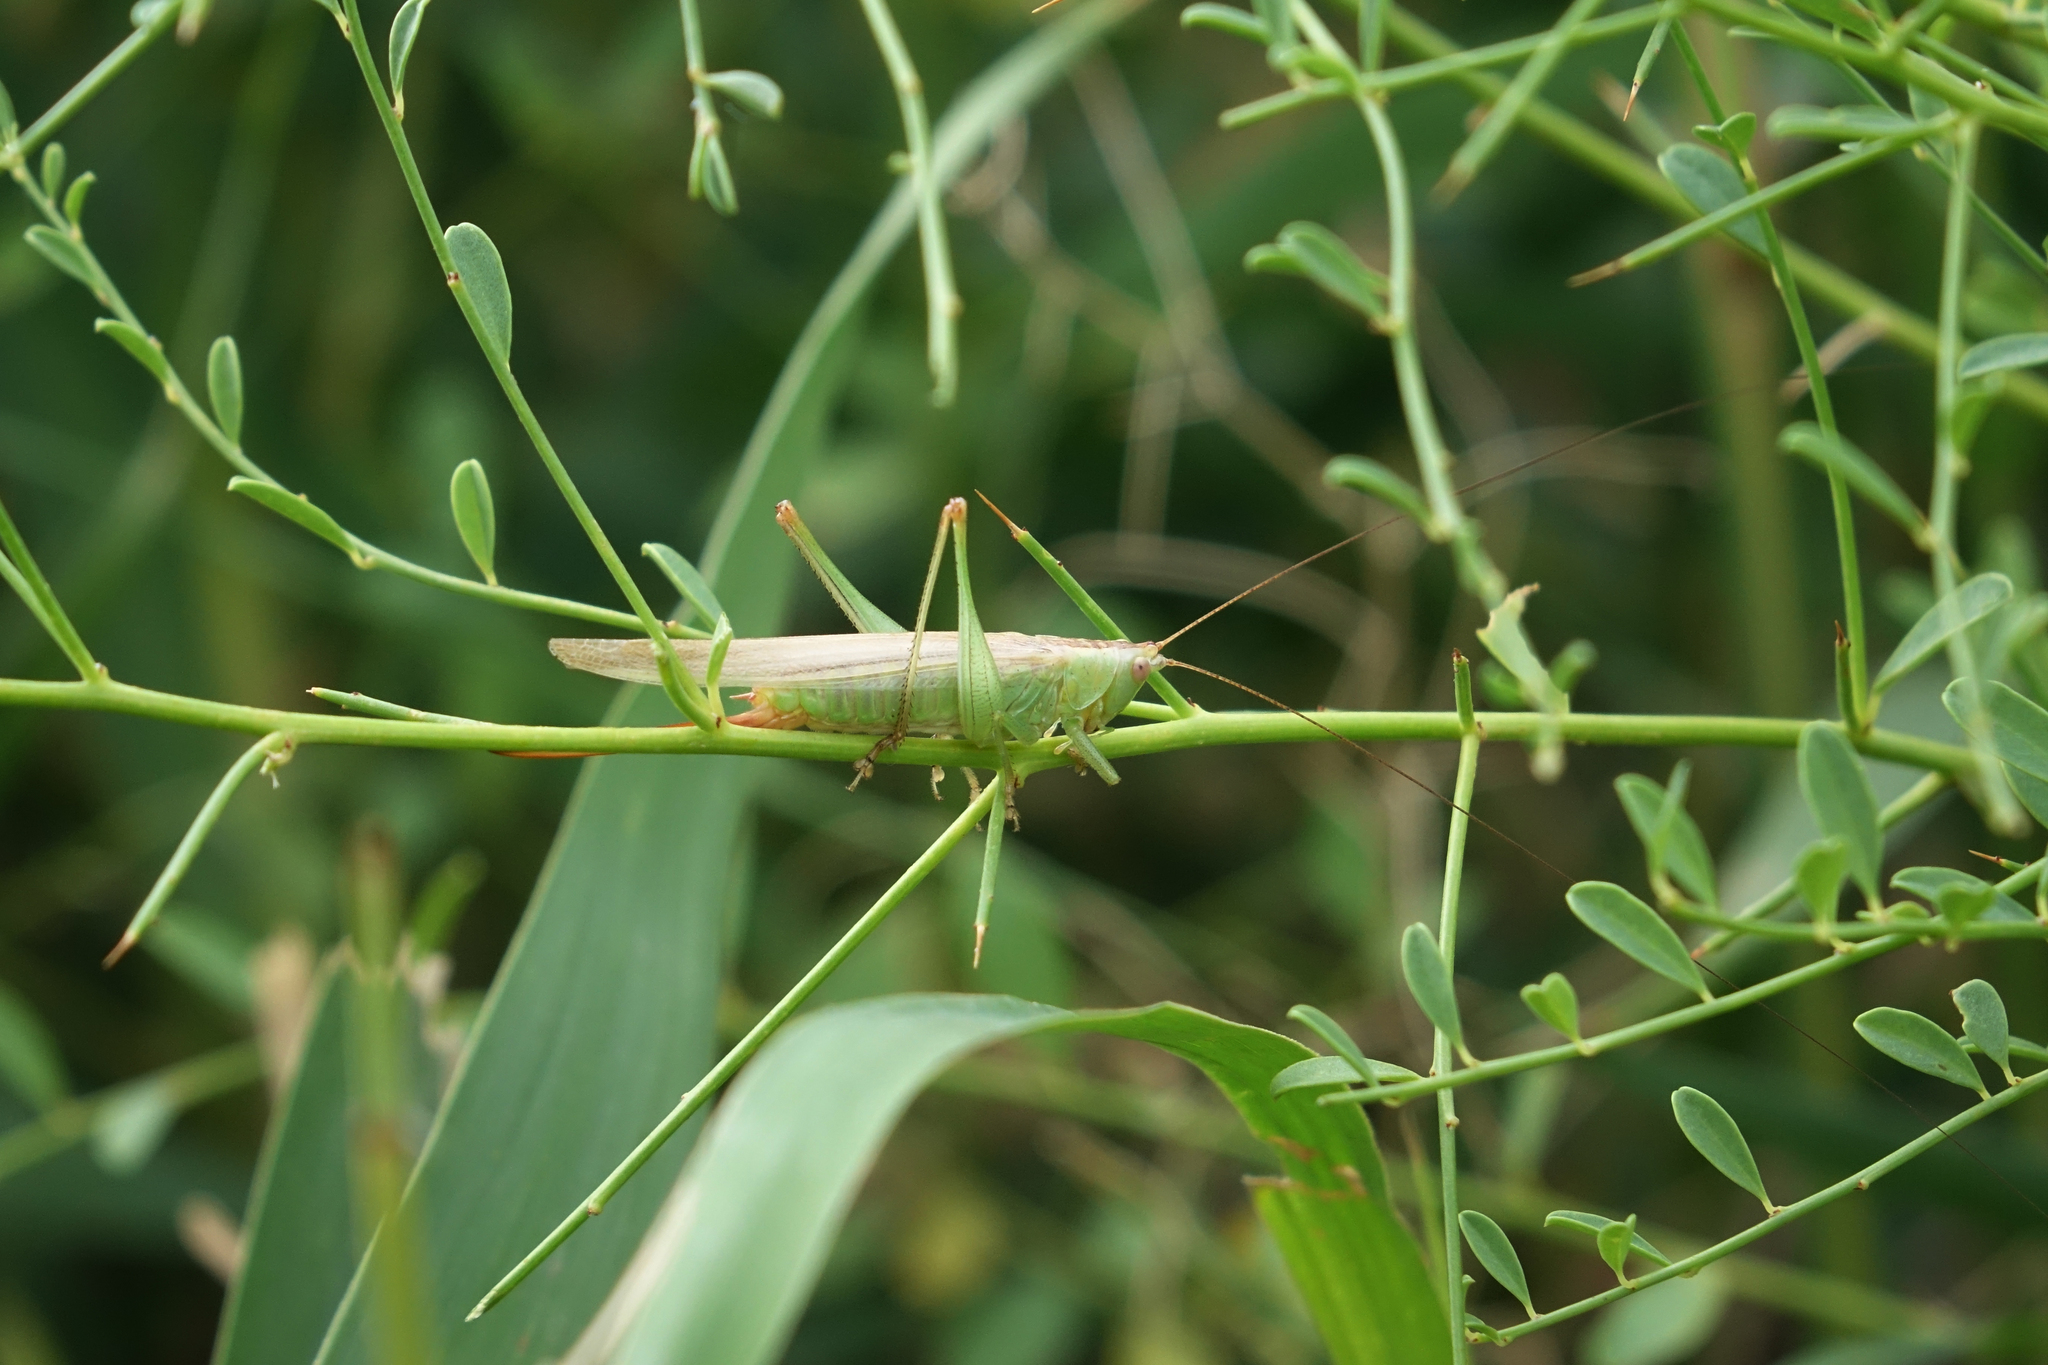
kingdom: Animalia
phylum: Arthropoda
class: Insecta
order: Orthoptera
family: Tettigoniidae
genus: Conocephalus
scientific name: Conocephalus fuscus
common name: Long-winged conehead
